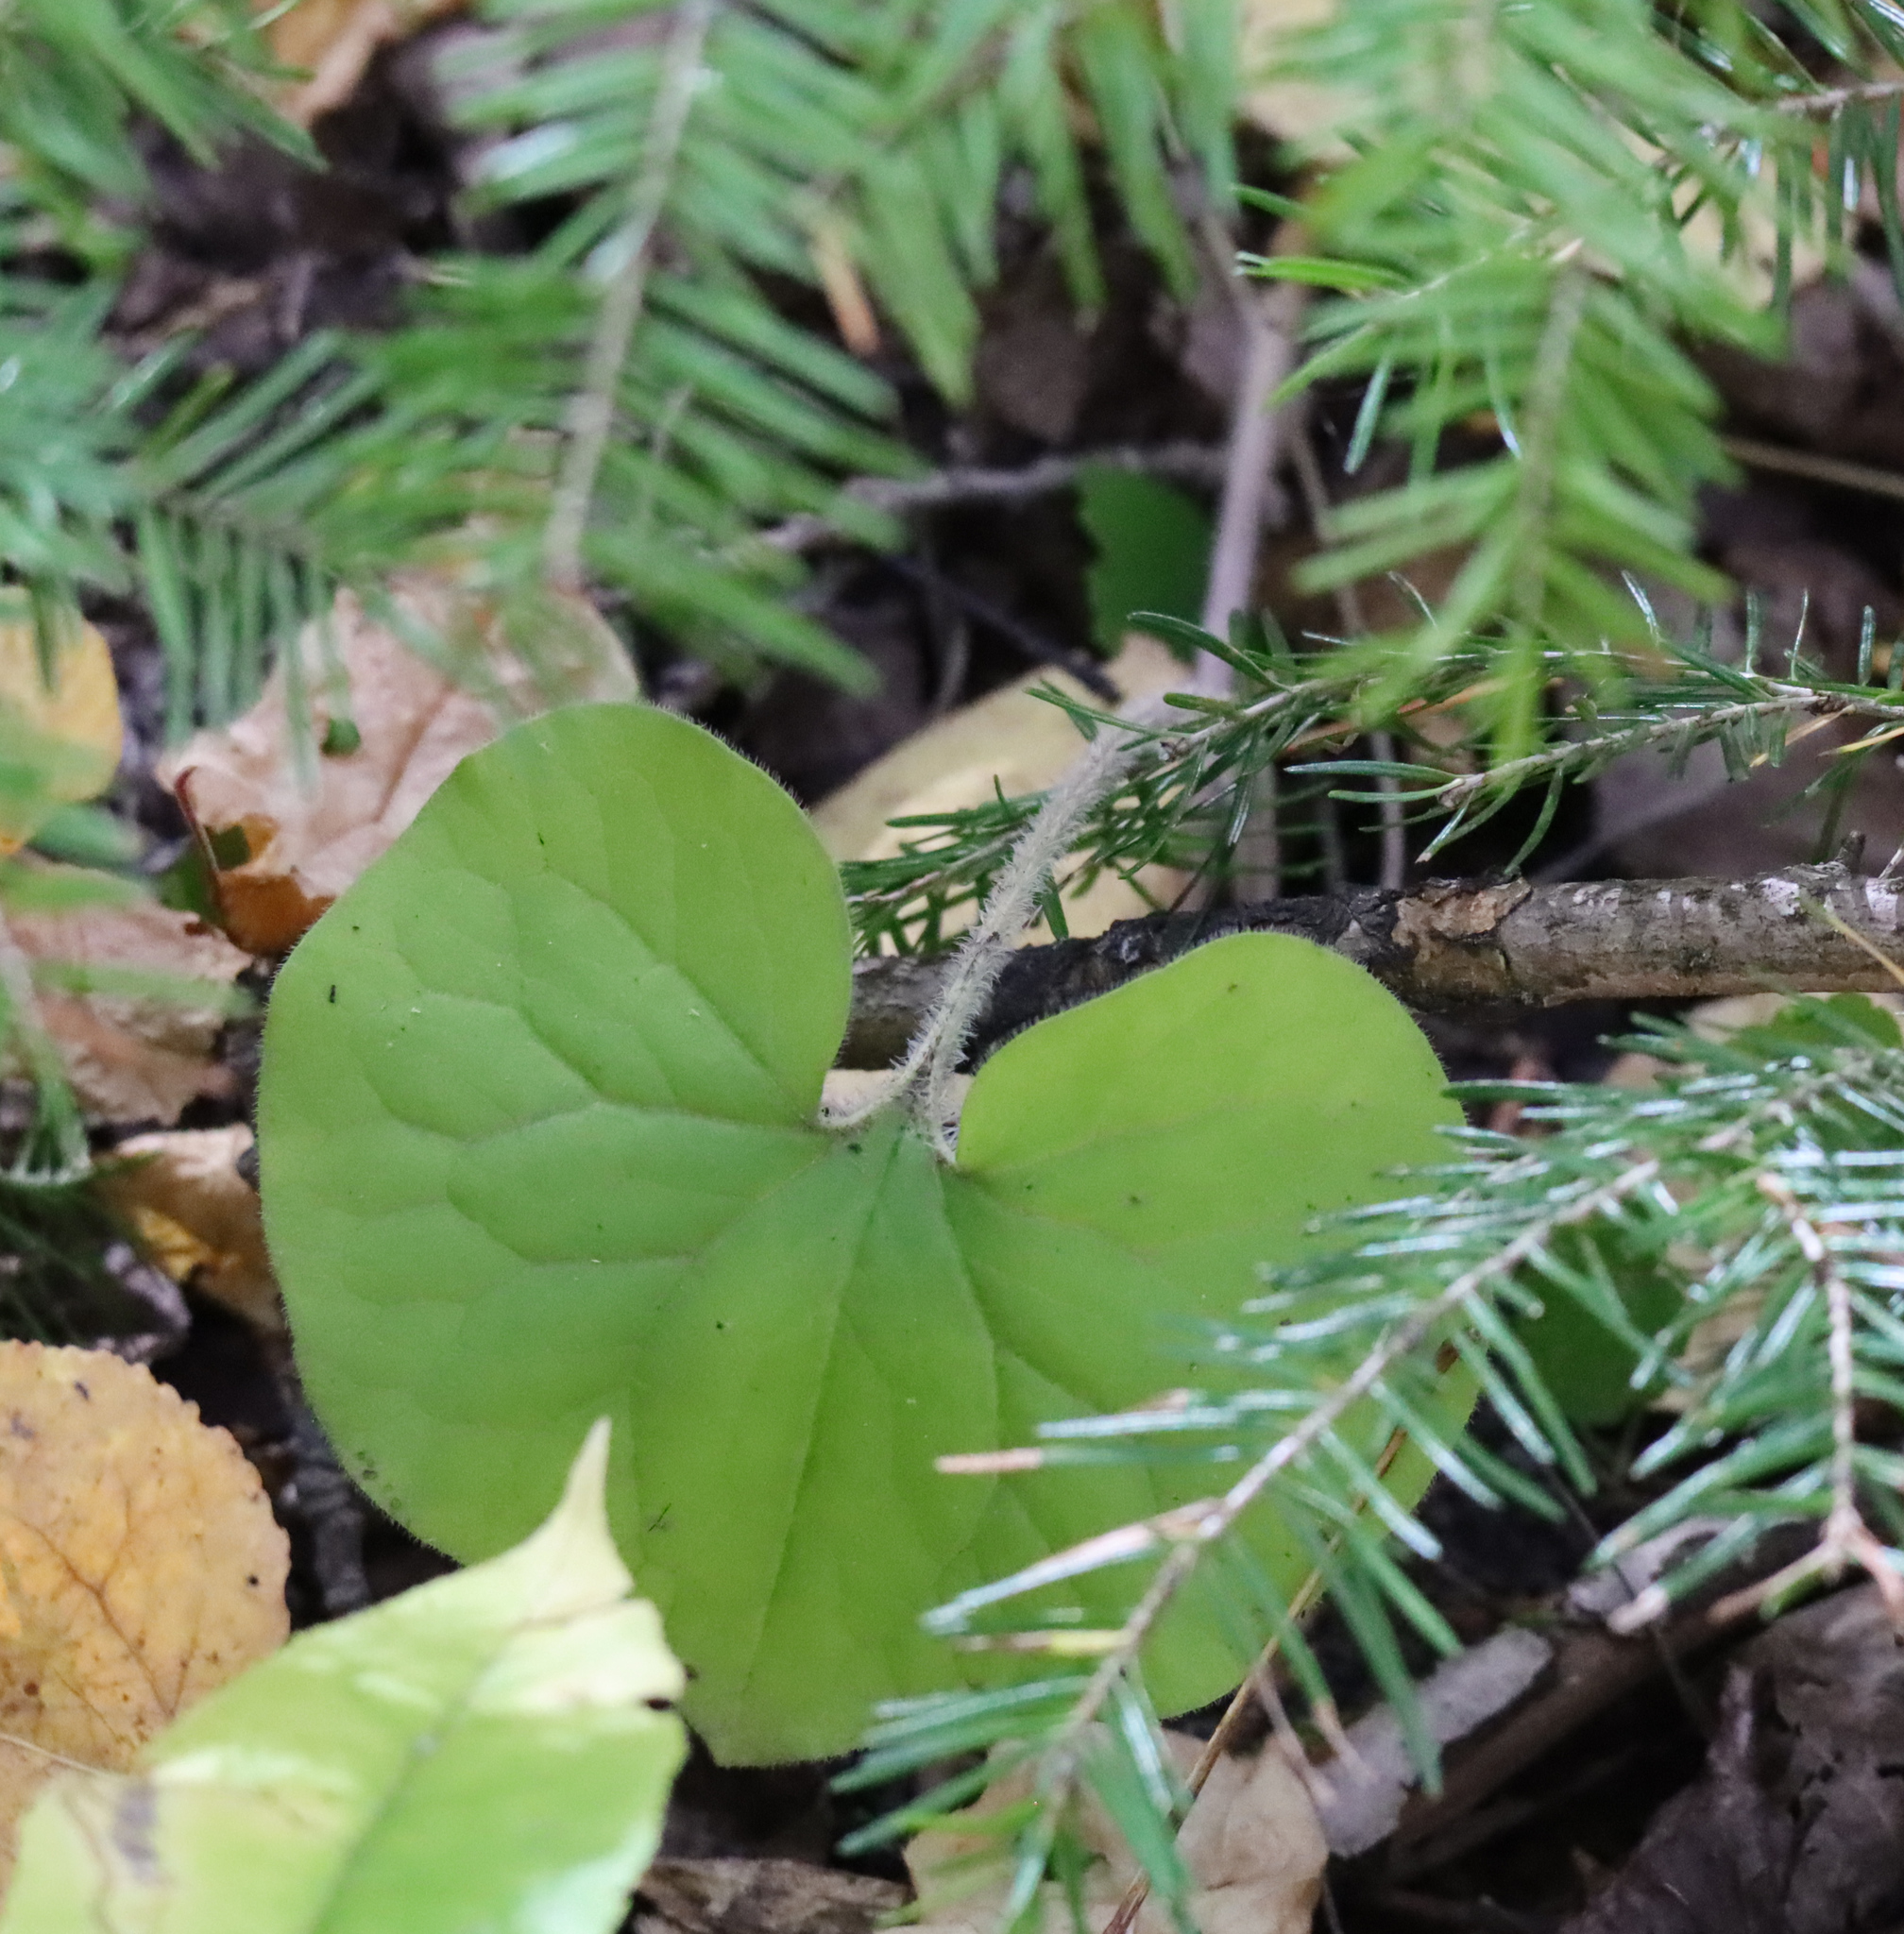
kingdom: Plantae
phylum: Tracheophyta
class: Magnoliopsida
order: Piperales
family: Aristolochiaceae
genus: Asarum
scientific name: Asarum canadense
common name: Wild ginger
